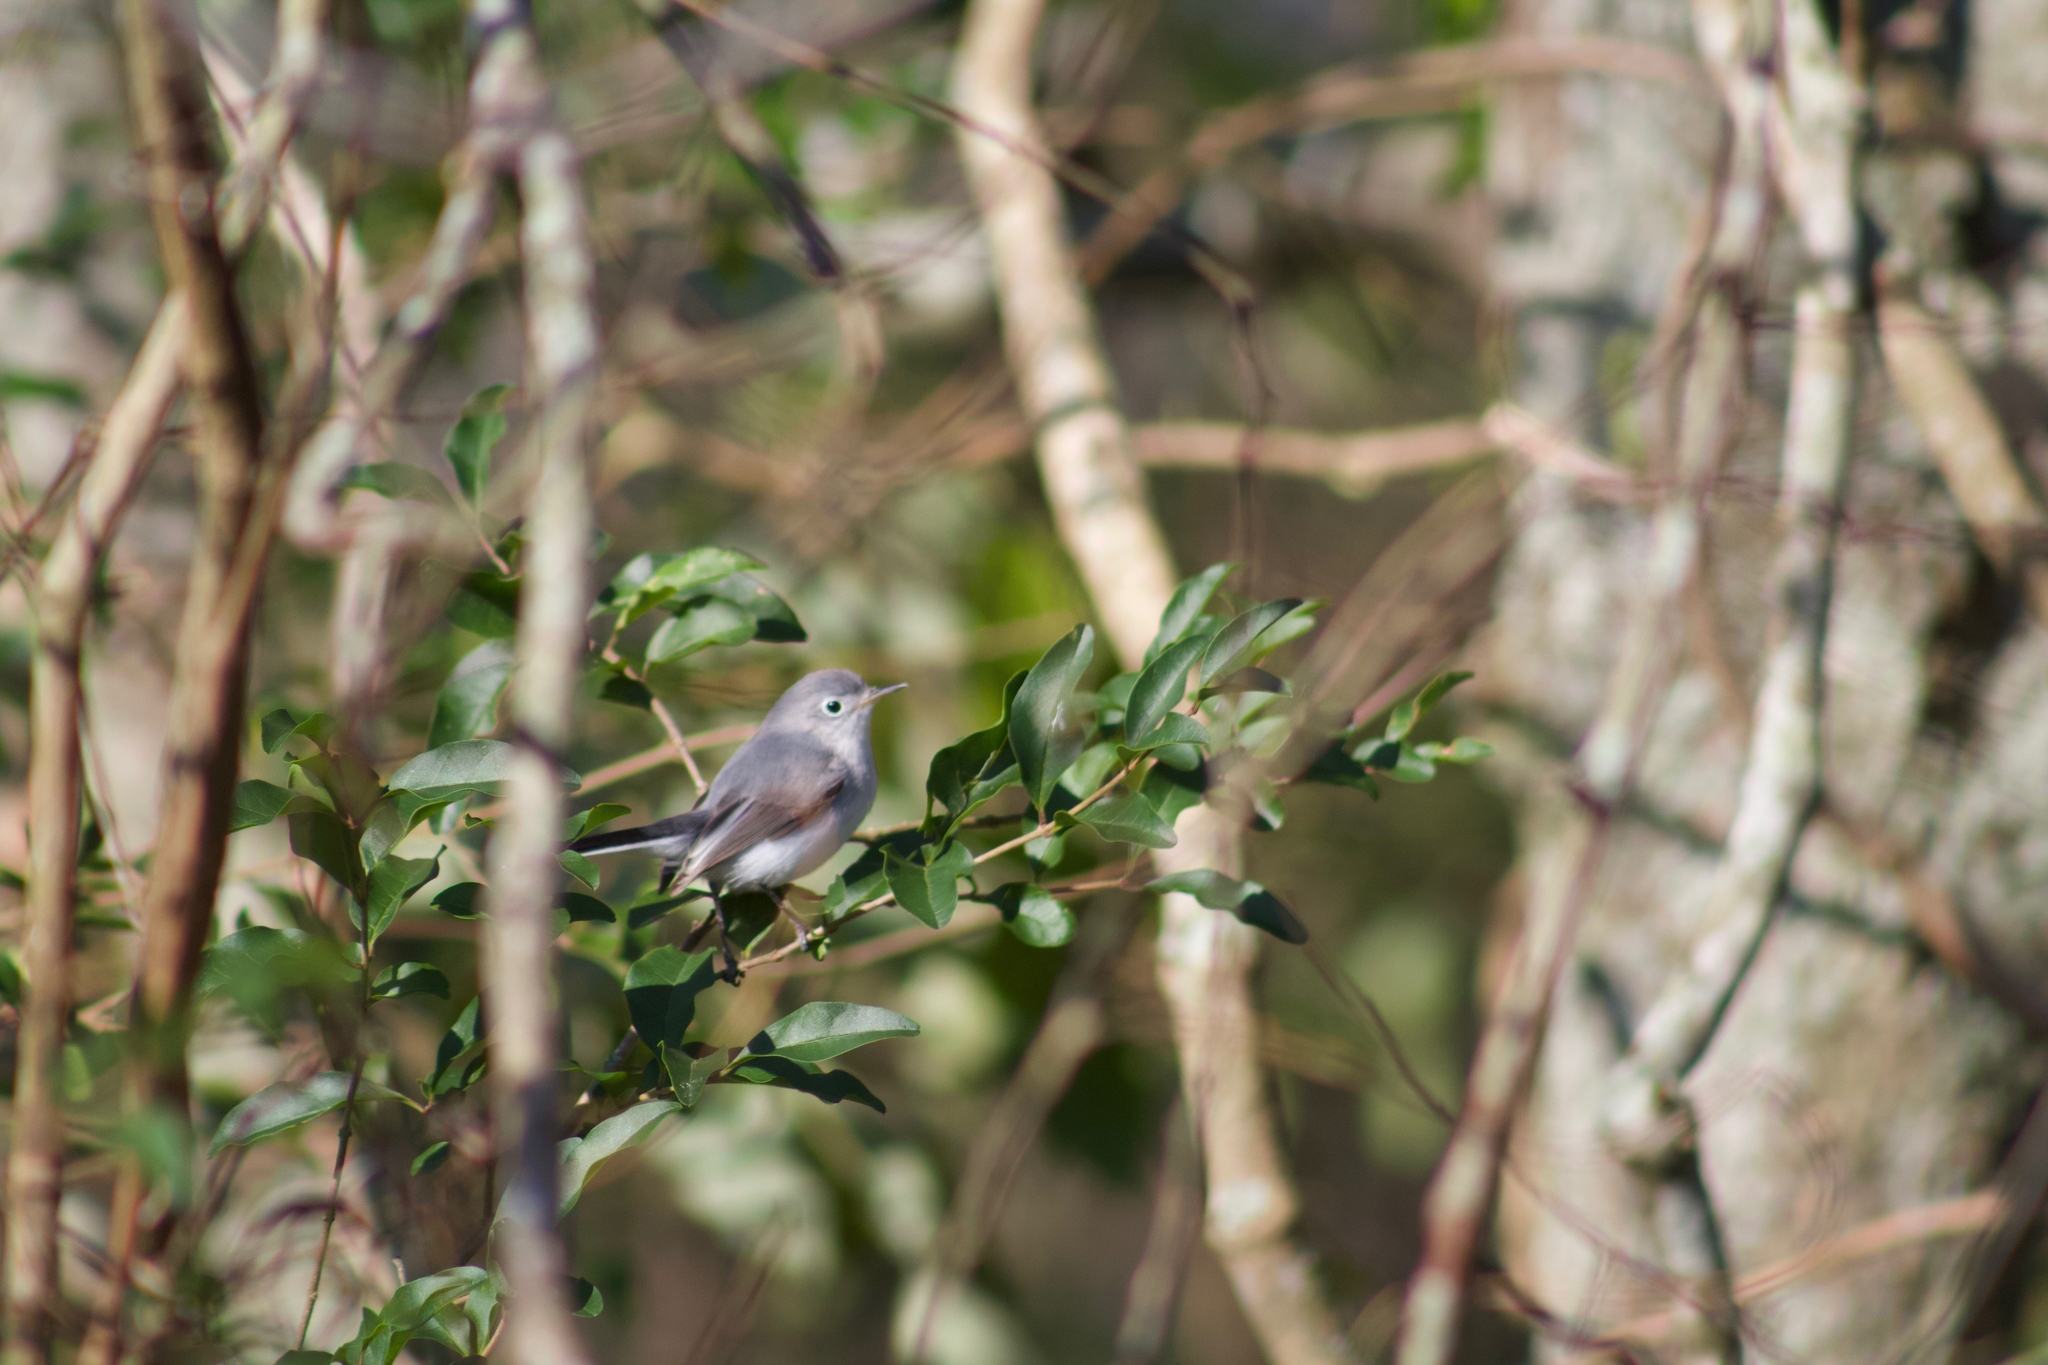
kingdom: Animalia
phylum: Chordata
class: Aves
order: Passeriformes
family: Polioptilidae
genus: Polioptila
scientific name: Polioptila caerulea
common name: Blue-gray gnatcatcher
